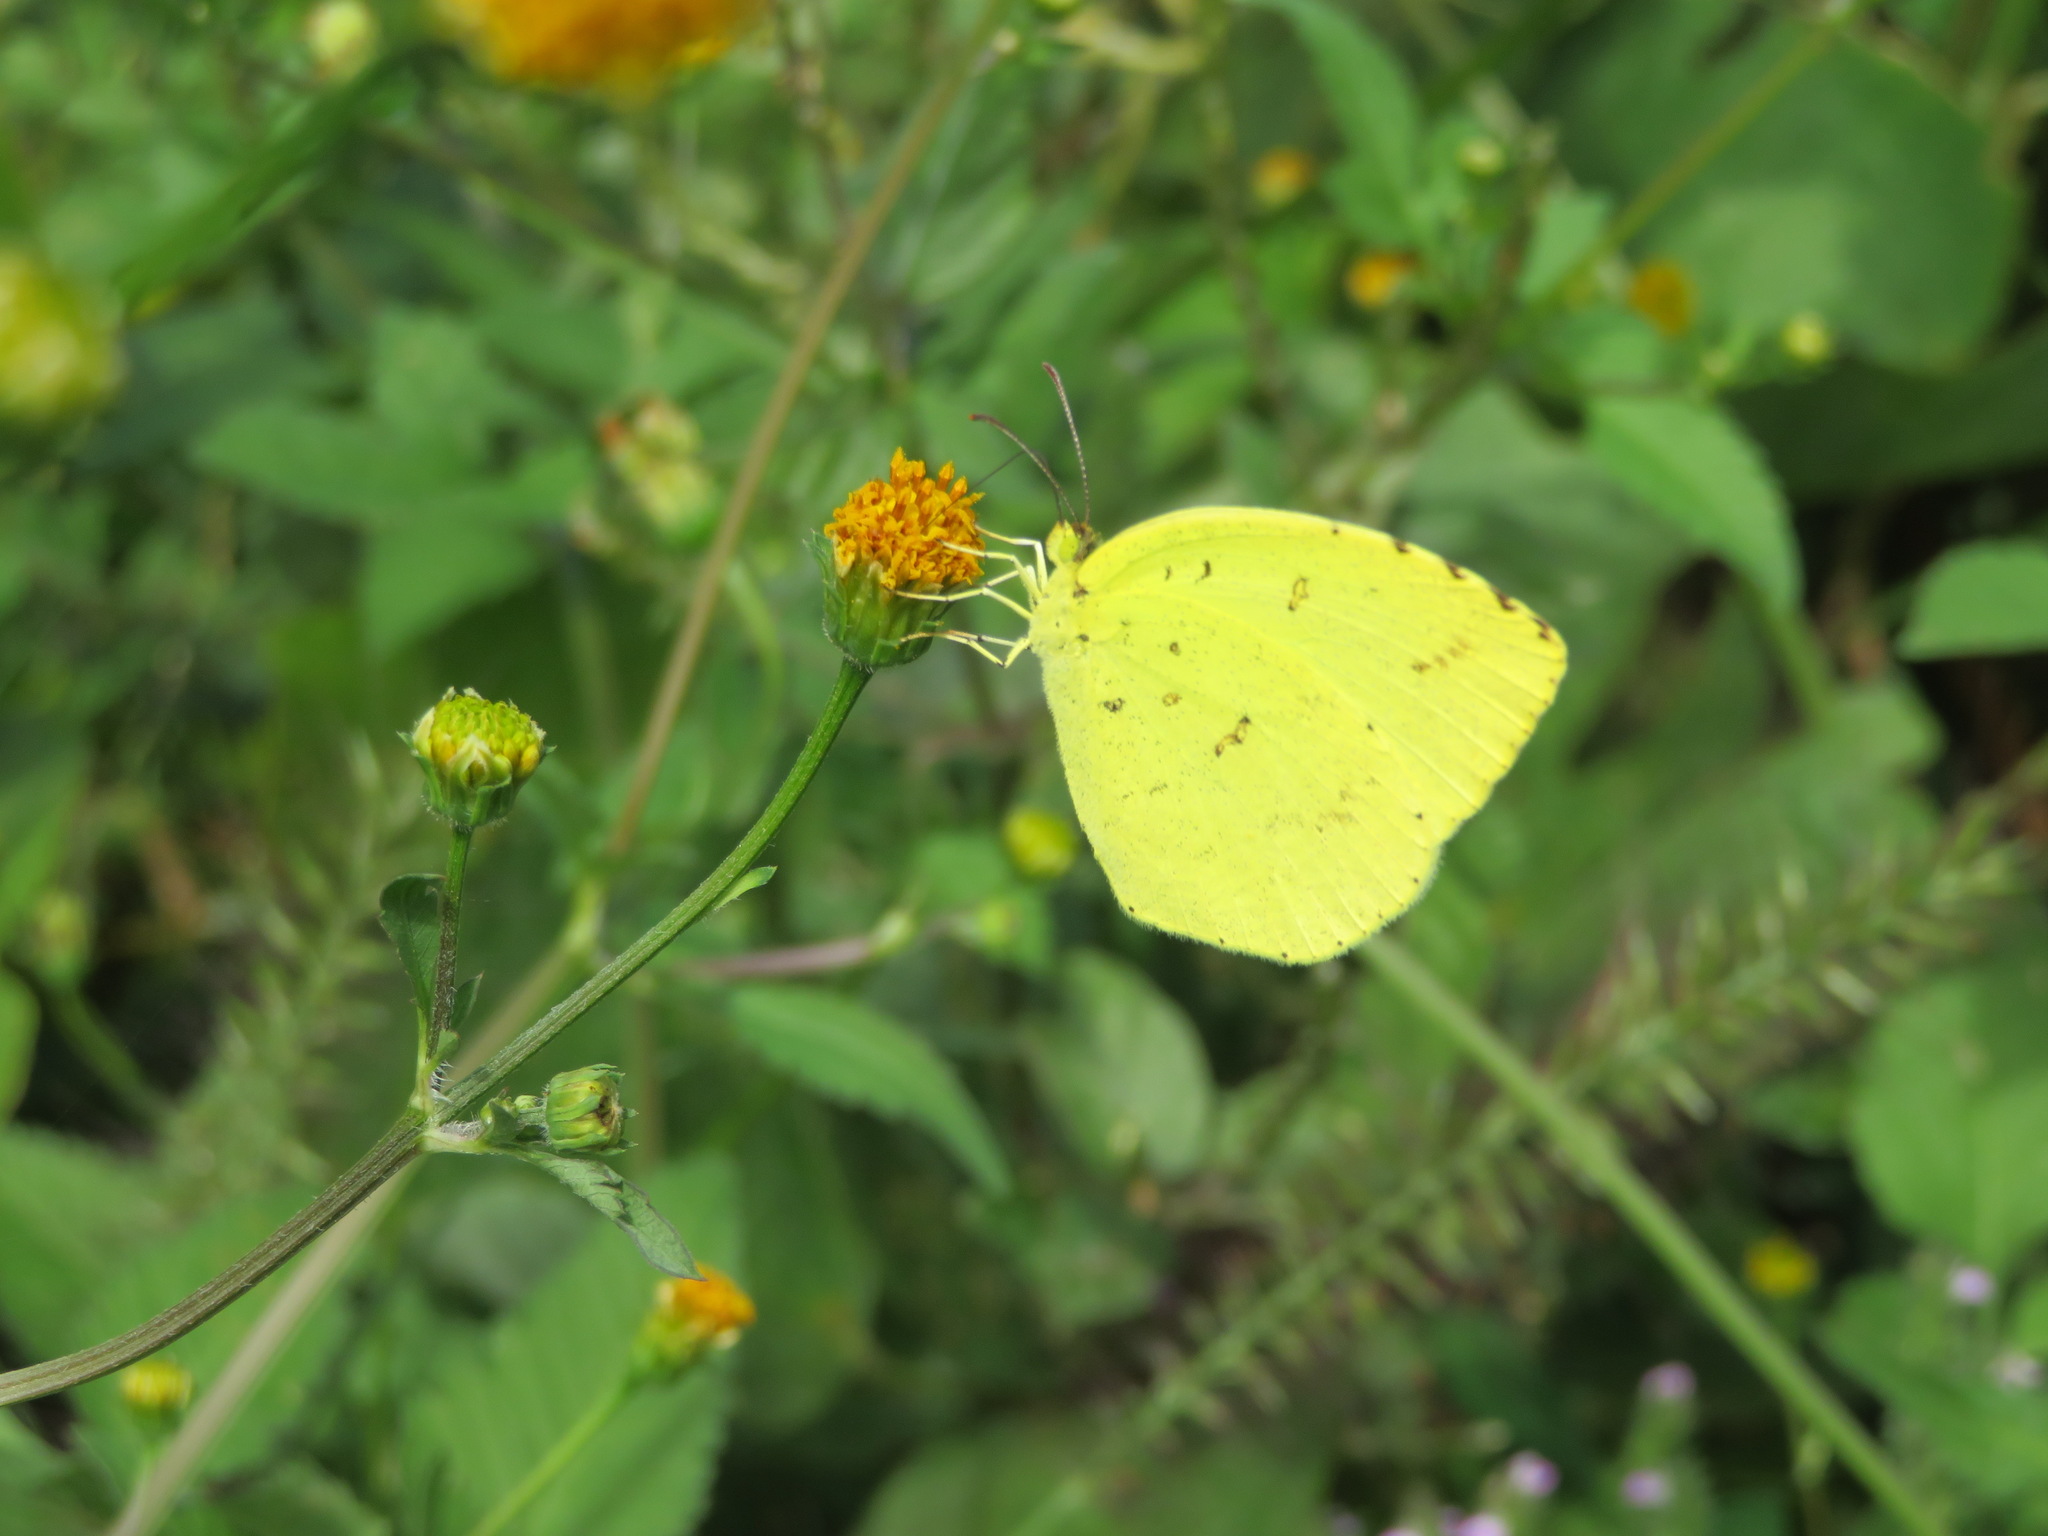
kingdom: Animalia
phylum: Arthropoda
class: Insecta
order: Lepidoptera
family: Pieridae
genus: Eurema
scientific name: Eurema mandarina
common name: Japanese common grass yellow
